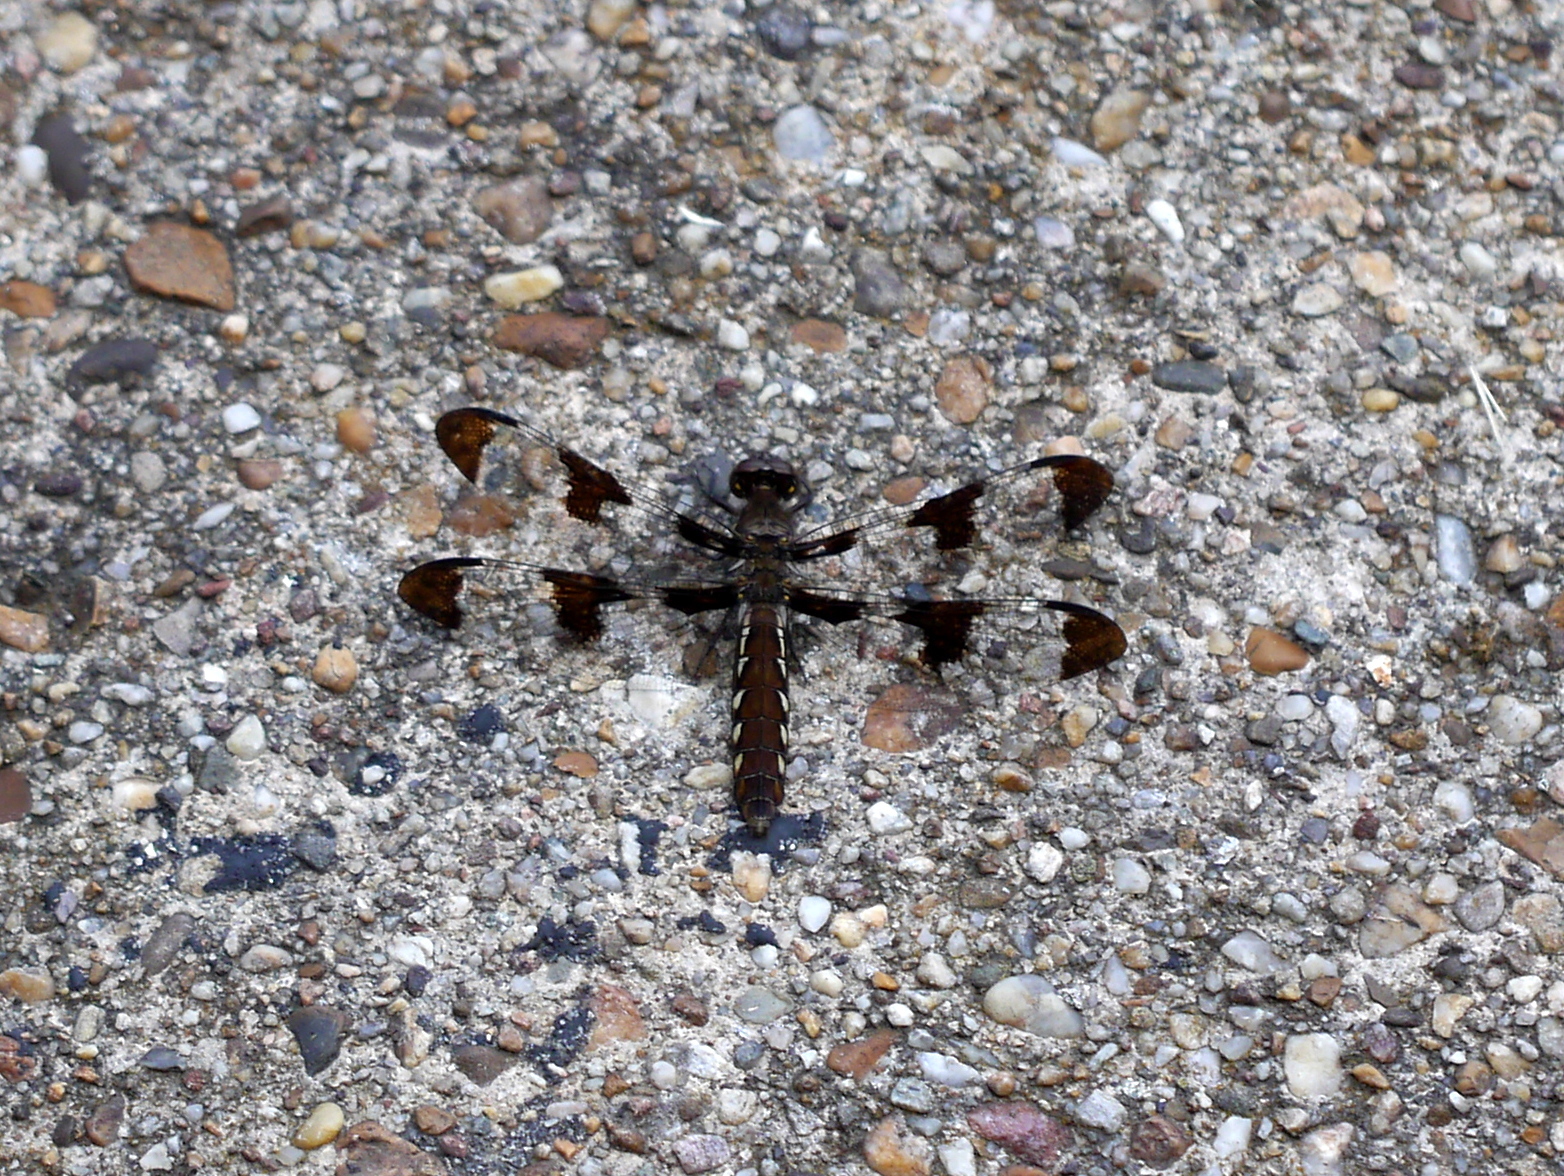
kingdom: Animalia
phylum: Arthropoda
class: Insecta
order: Odonata
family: Libellulidae
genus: Plathemis
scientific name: Plathemis lydia
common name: Common whitetail
